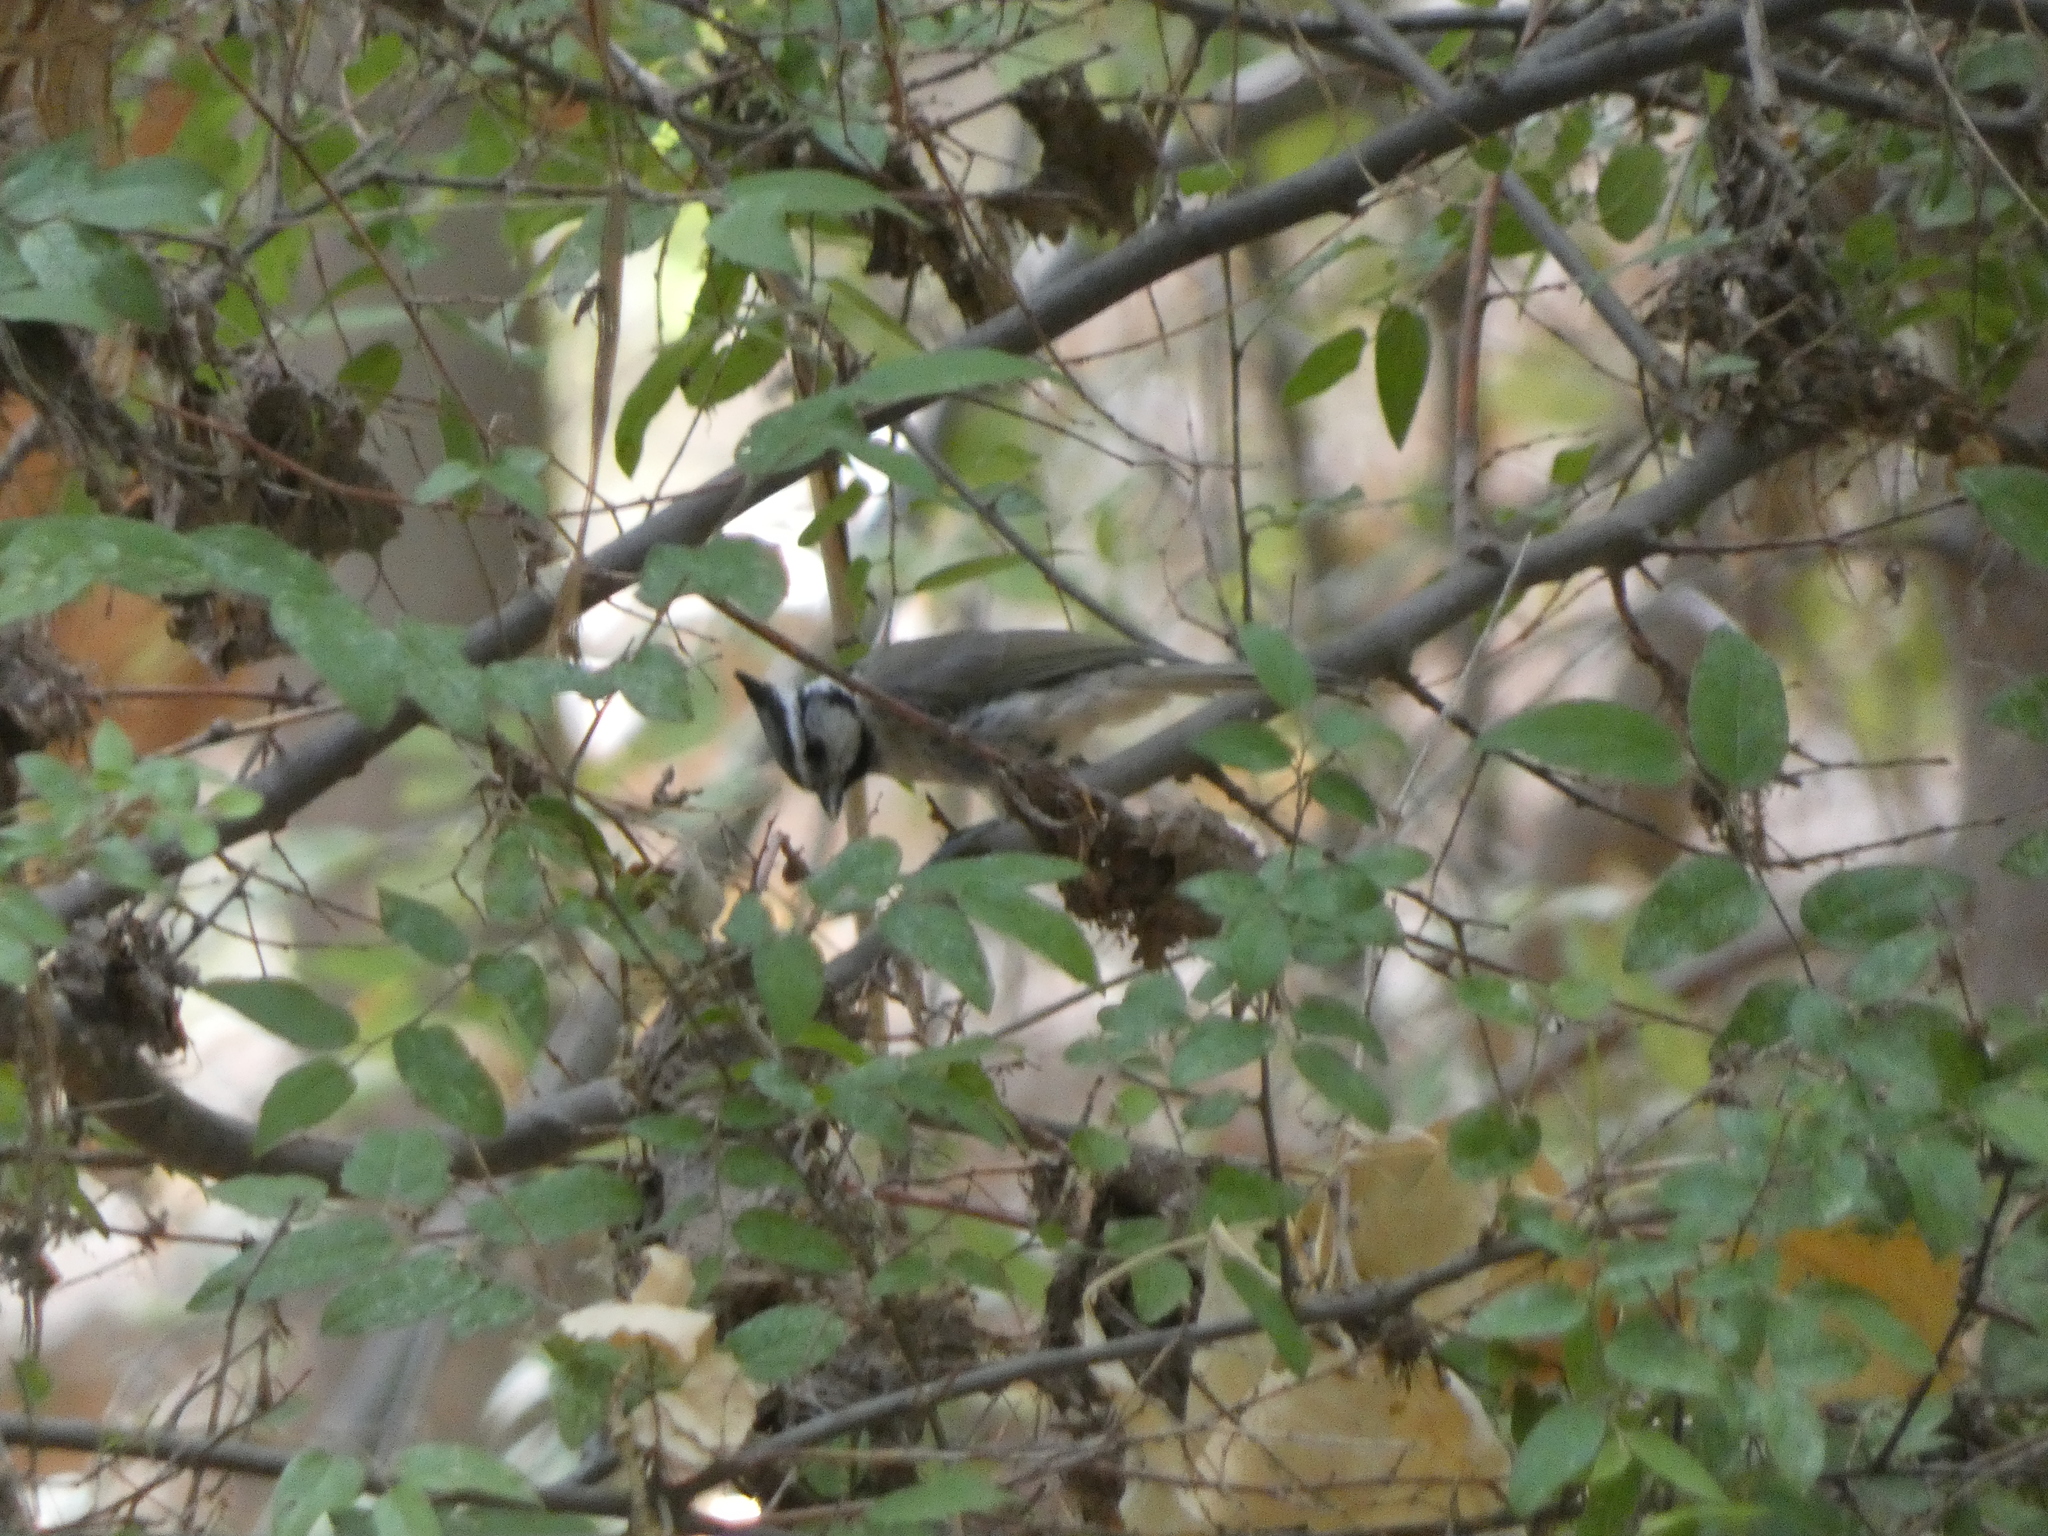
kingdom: Animalia
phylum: Chordata
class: Aves
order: Passeriformes
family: Paridae
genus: Baeolophus
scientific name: Baeolophus wollweberi
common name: Bridled titmouse
